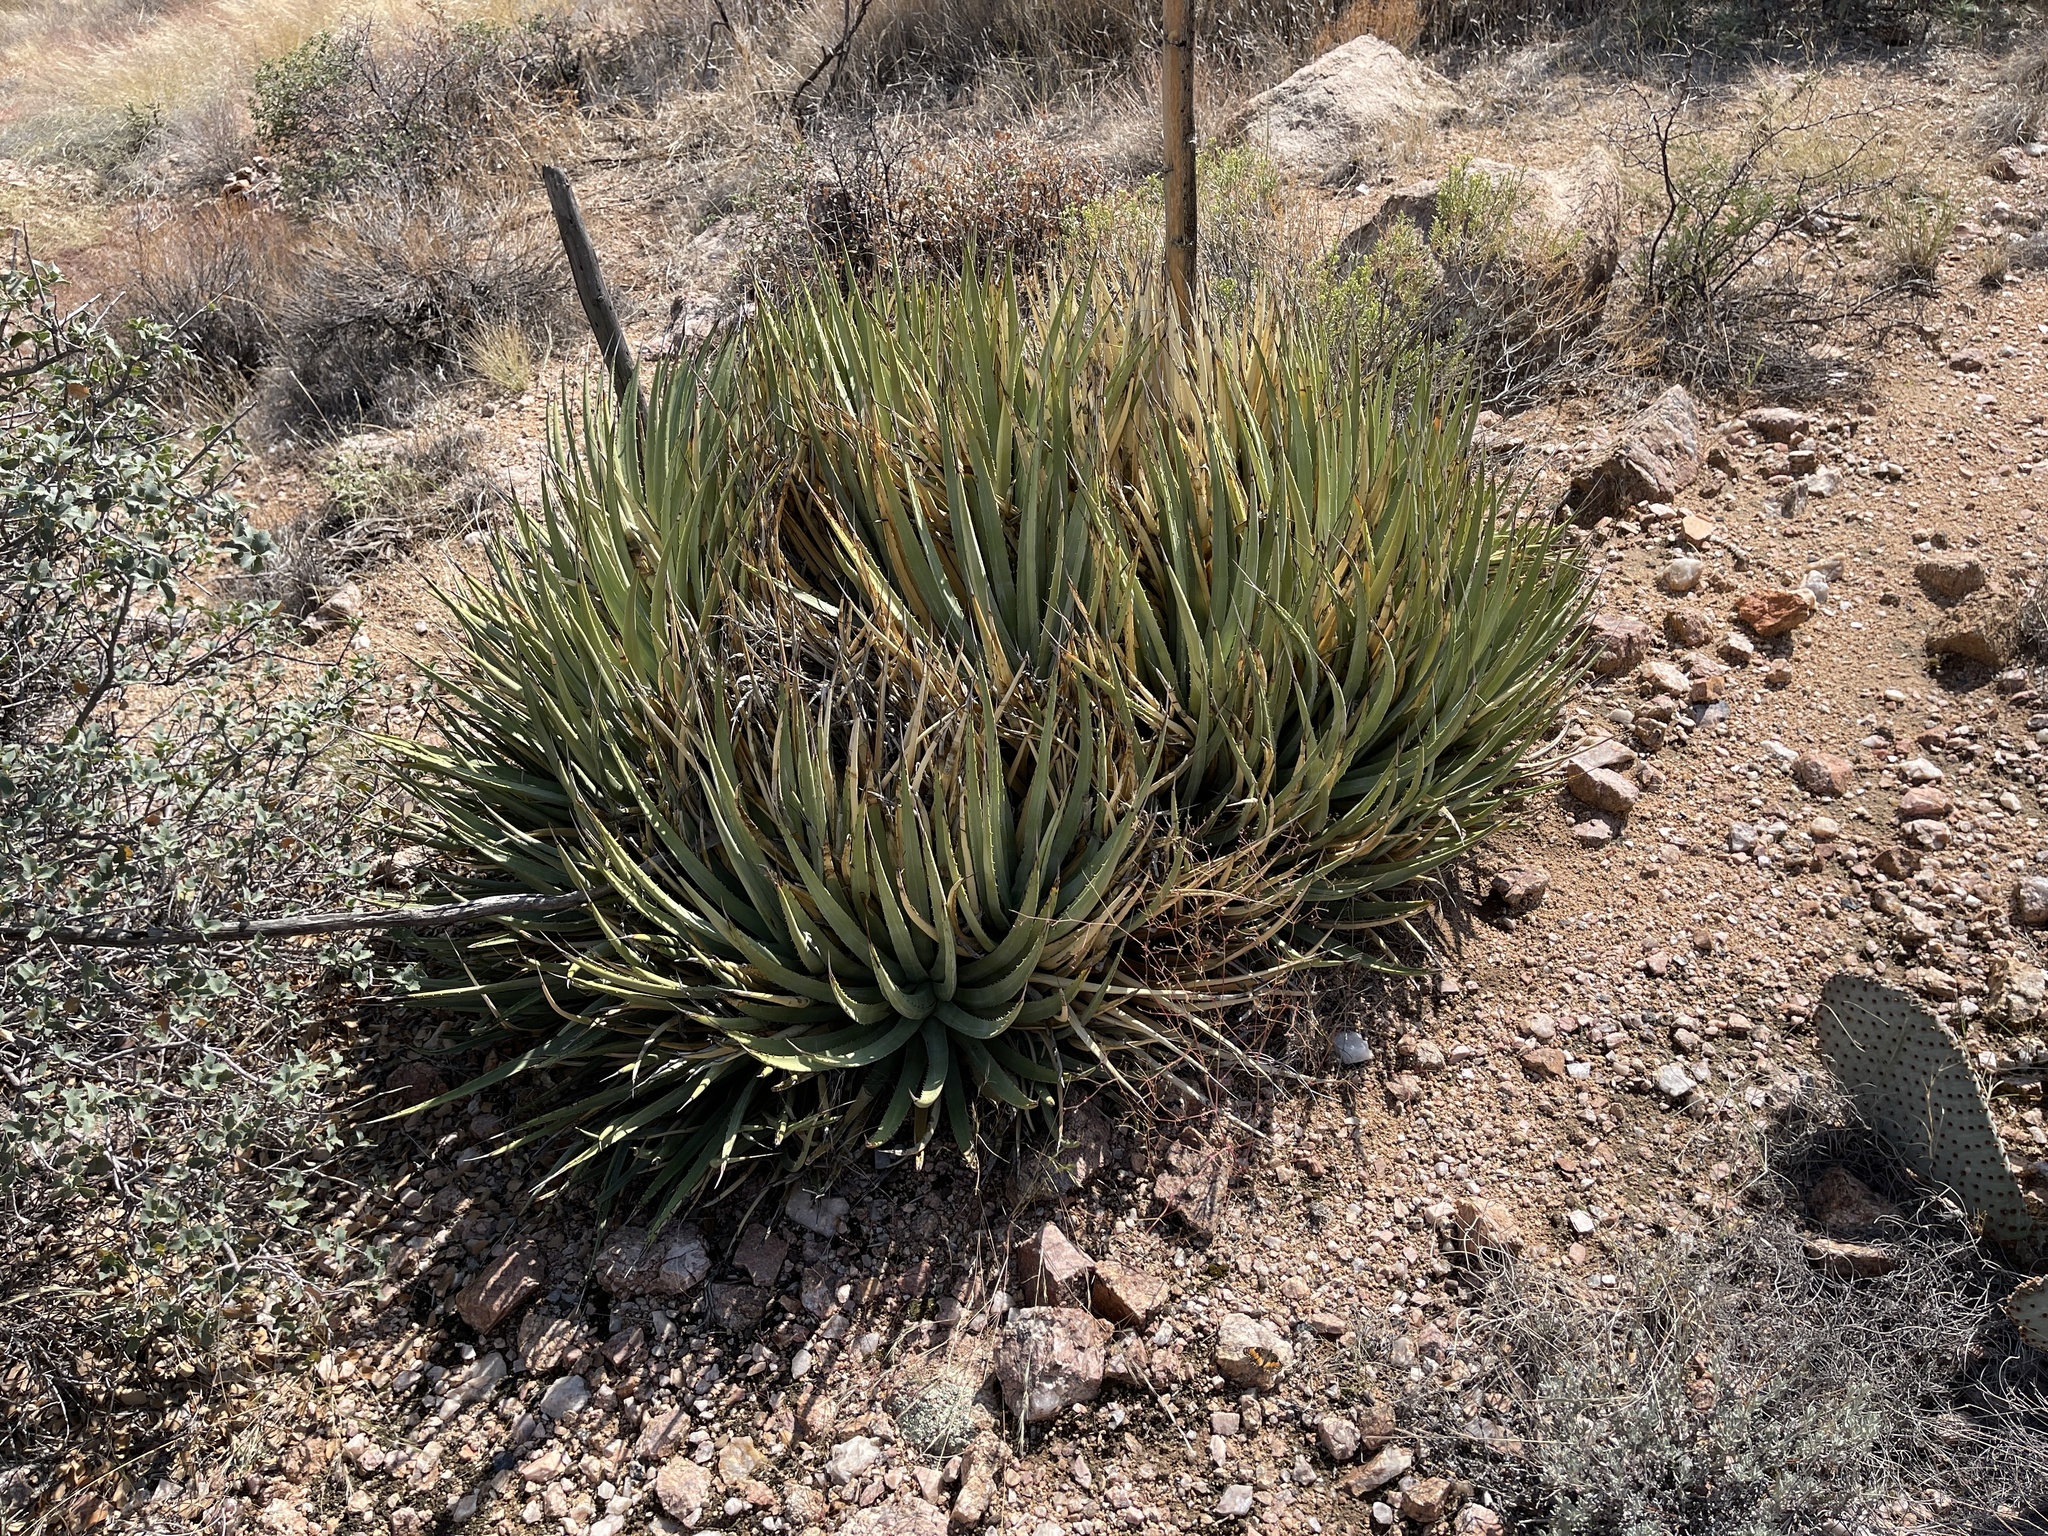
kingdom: Plantae
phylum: Tracheophyta
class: Liliopsida
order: Asparagales
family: Asparagaceae
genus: Agave
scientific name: Agave utahensis
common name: Utah agave
